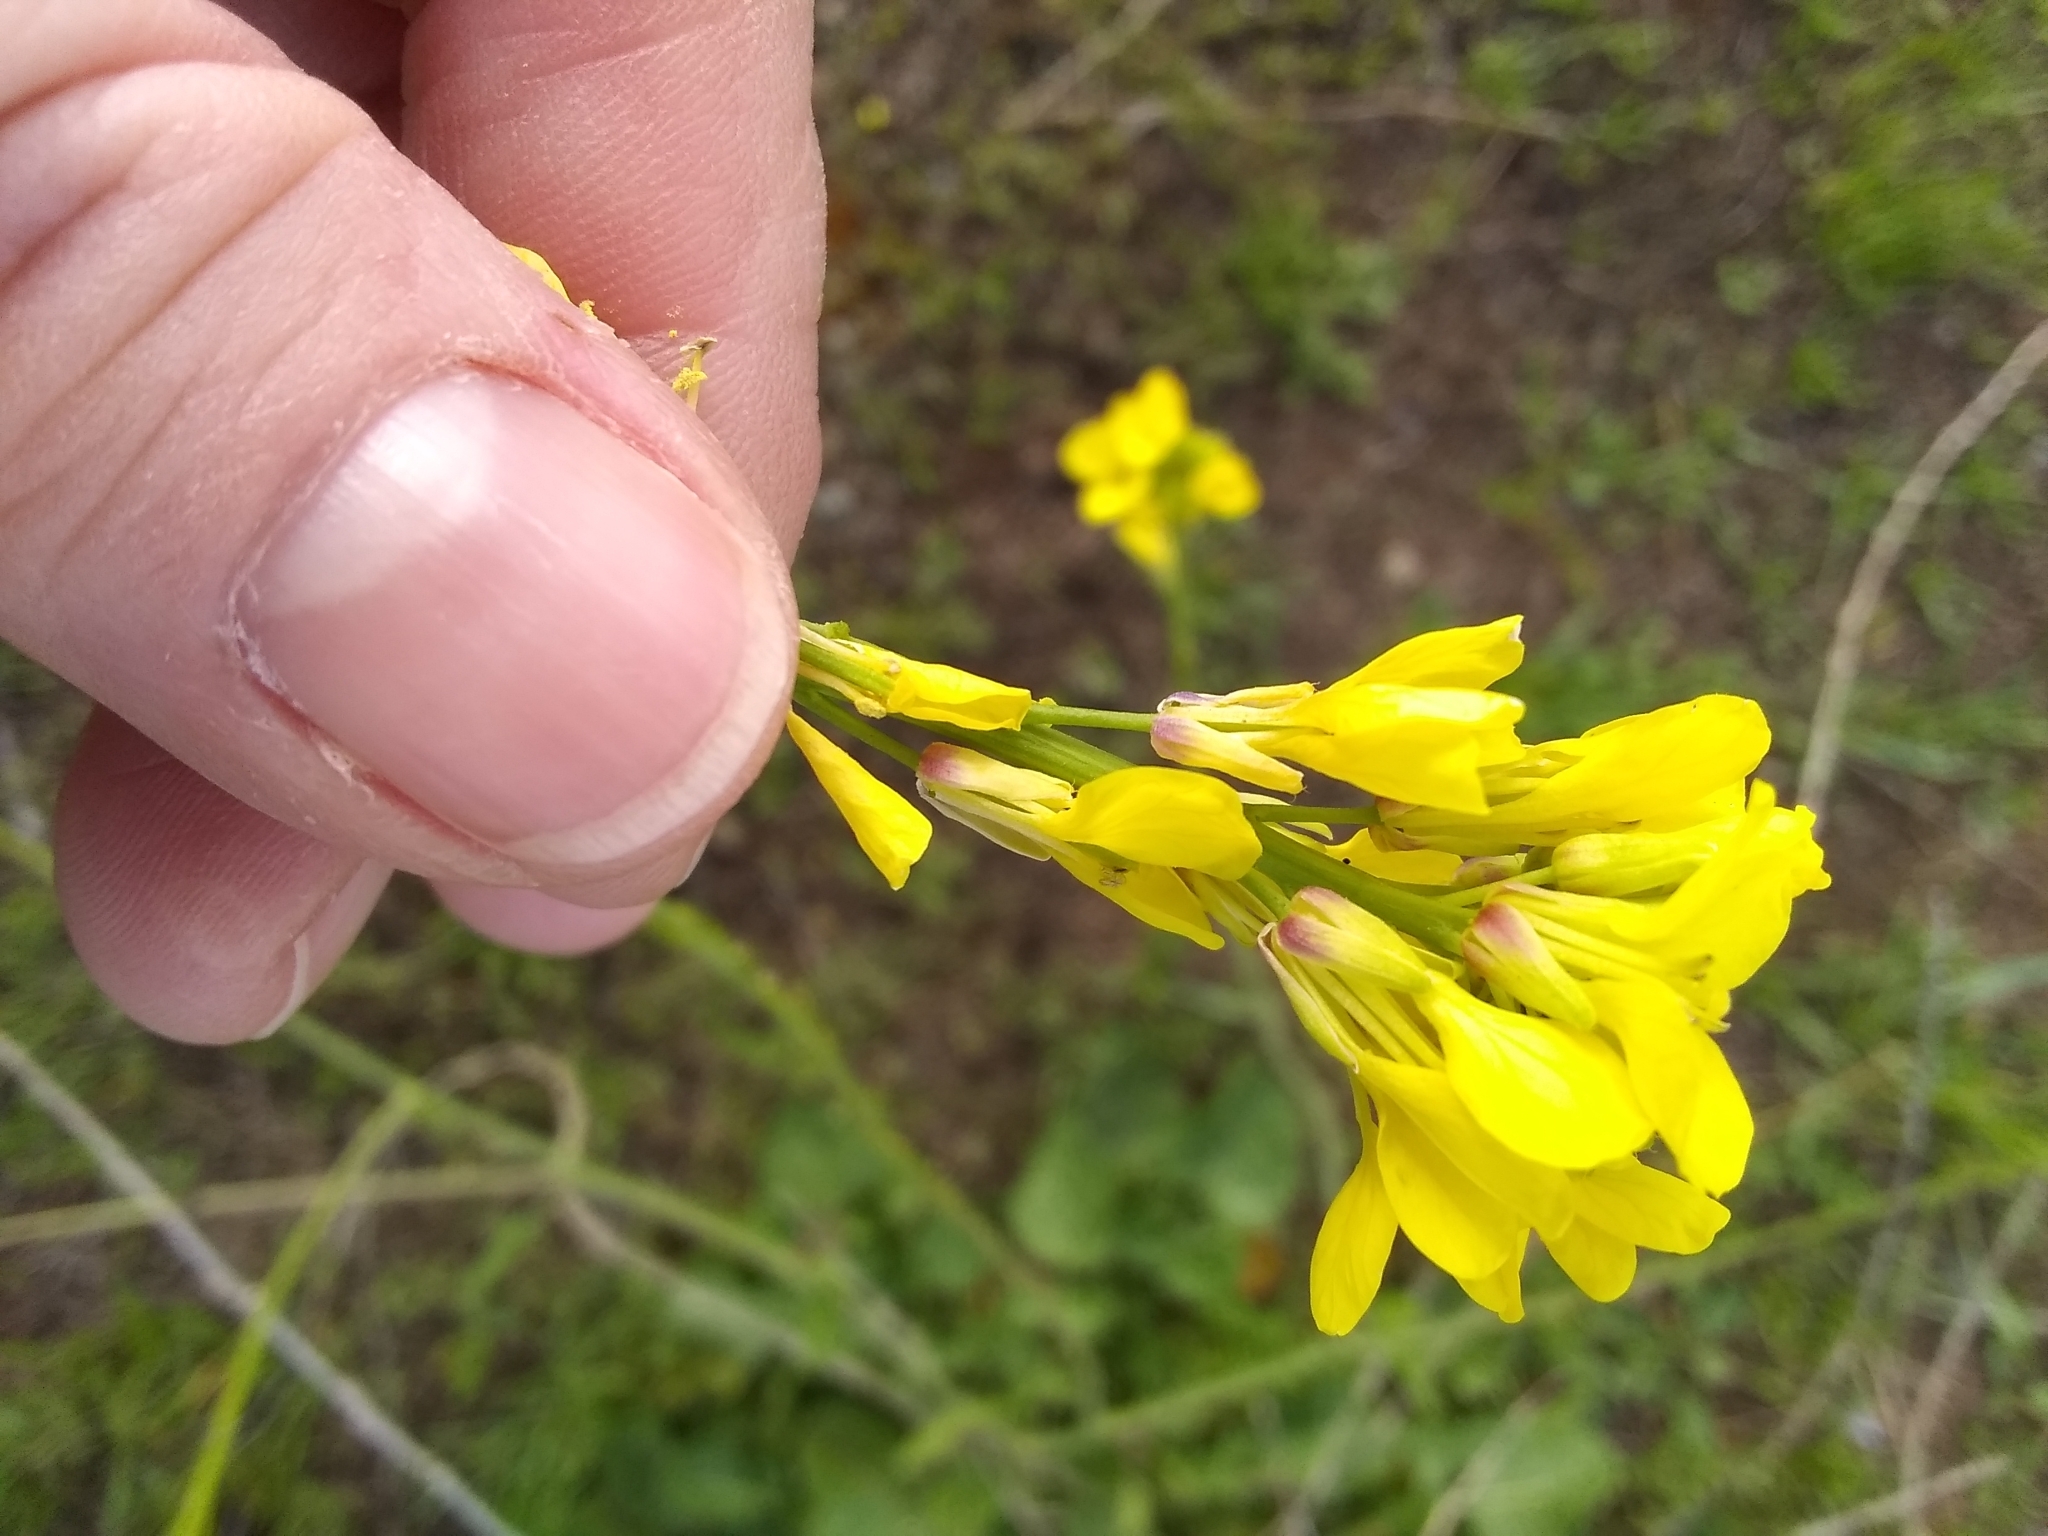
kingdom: Plantae
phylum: Tracheophyta
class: Magnoliopsida
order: Brassicales
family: Brassicaceae
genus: Hirschfeldia
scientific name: Hirschfeldia incana
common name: Hoary mustard
